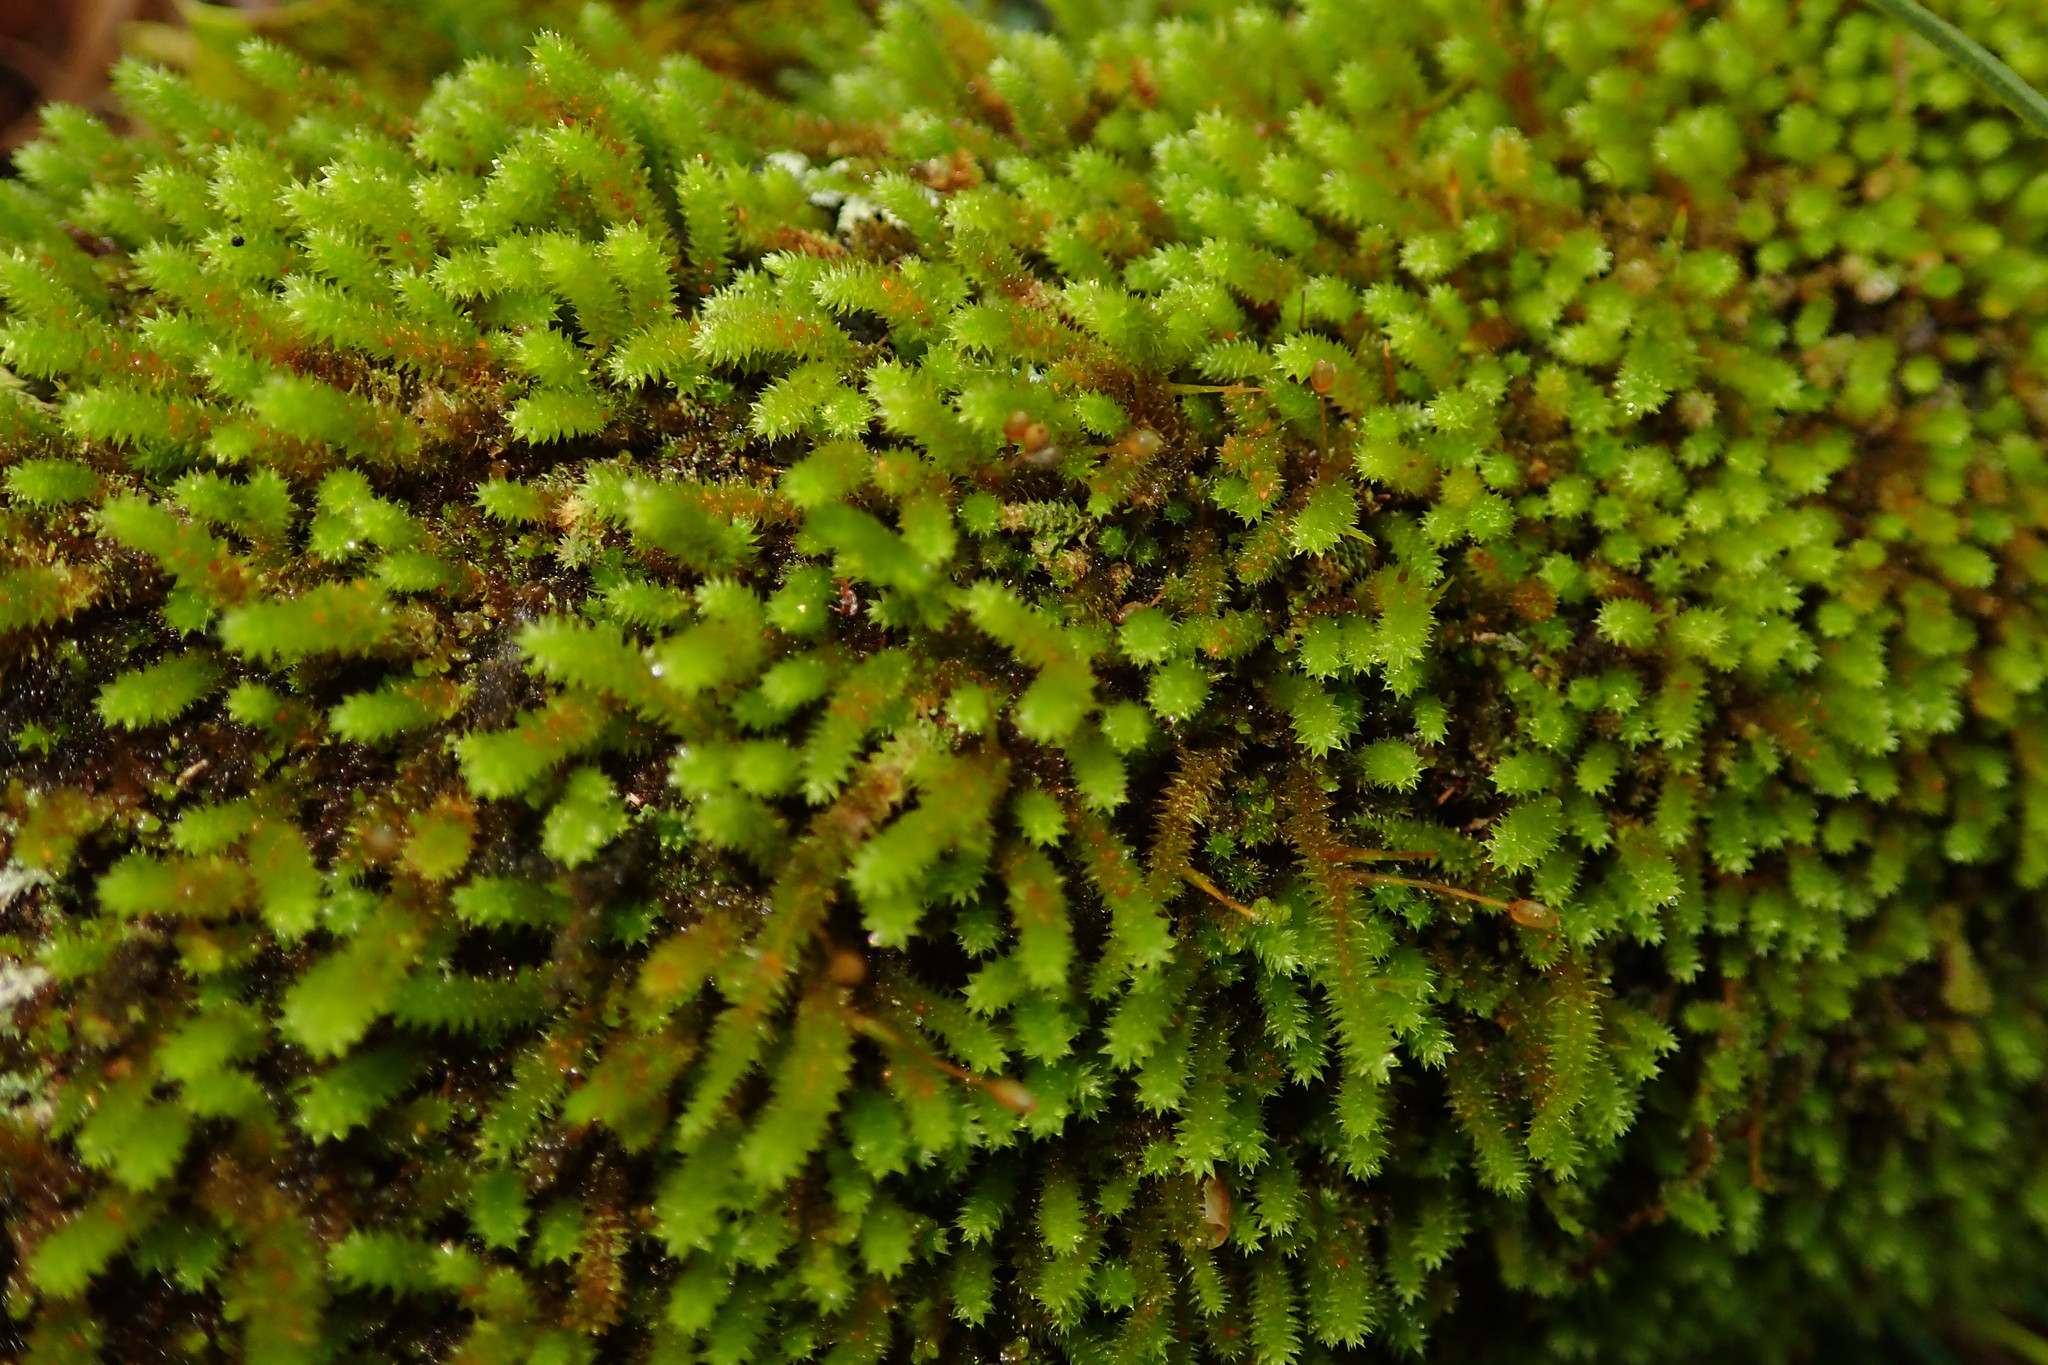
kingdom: Plantae
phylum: Bryophyta
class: Bryopsida
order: Hypnales
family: Leucodontaceae
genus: Leucodon
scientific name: Leucodon julaceus
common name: Smooth hook moss
